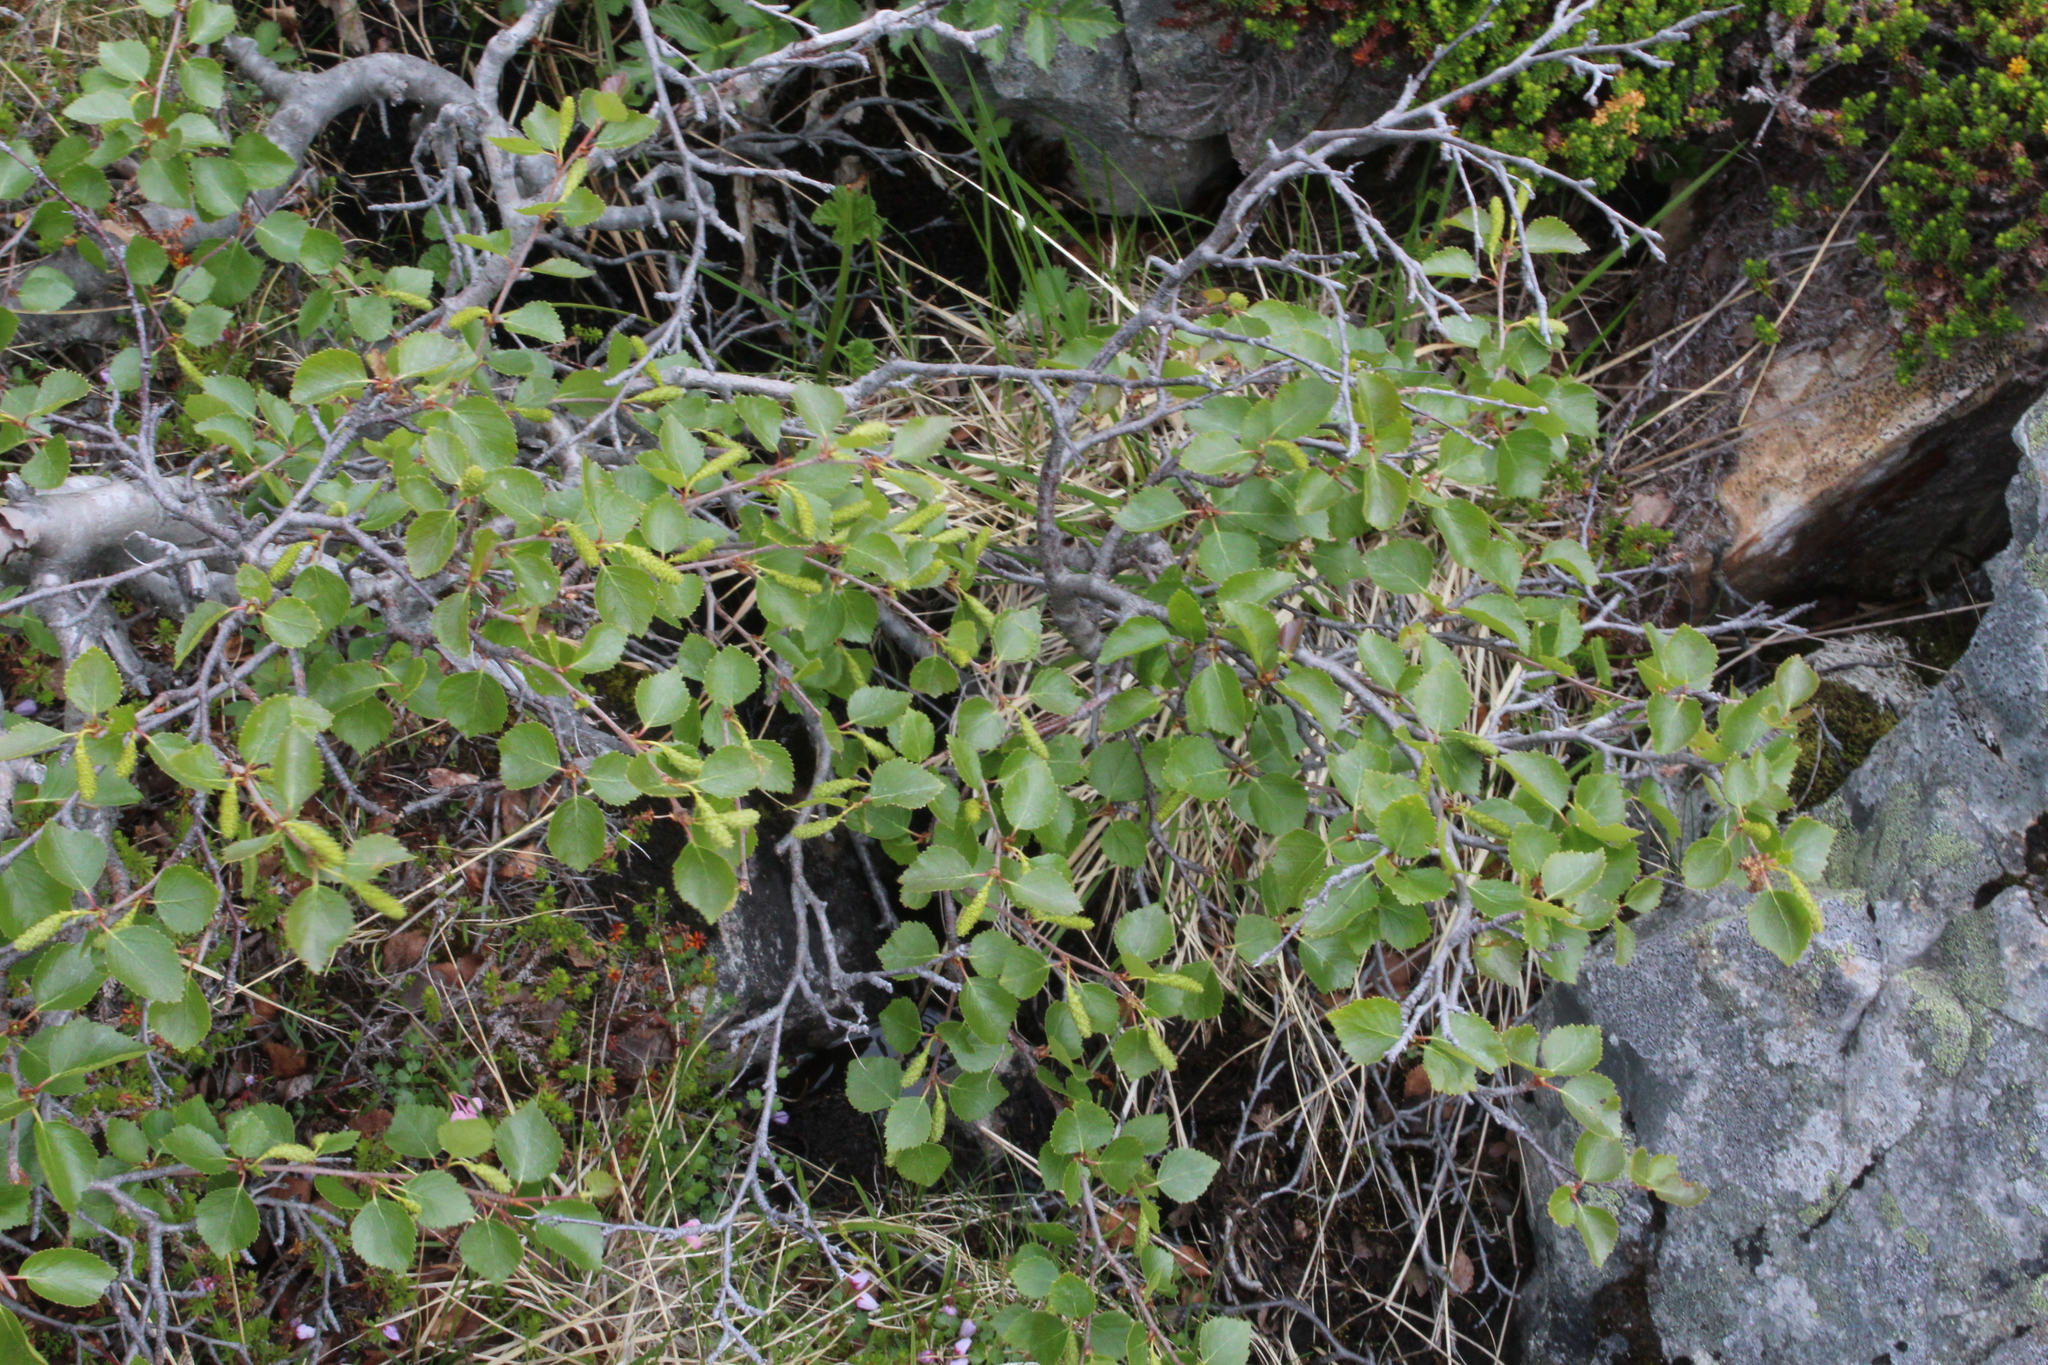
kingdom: Plantae
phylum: Tracheophyta
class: Magnoliopsida
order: Fagales
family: Betulaceae
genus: Betula
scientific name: Betula intermedia
